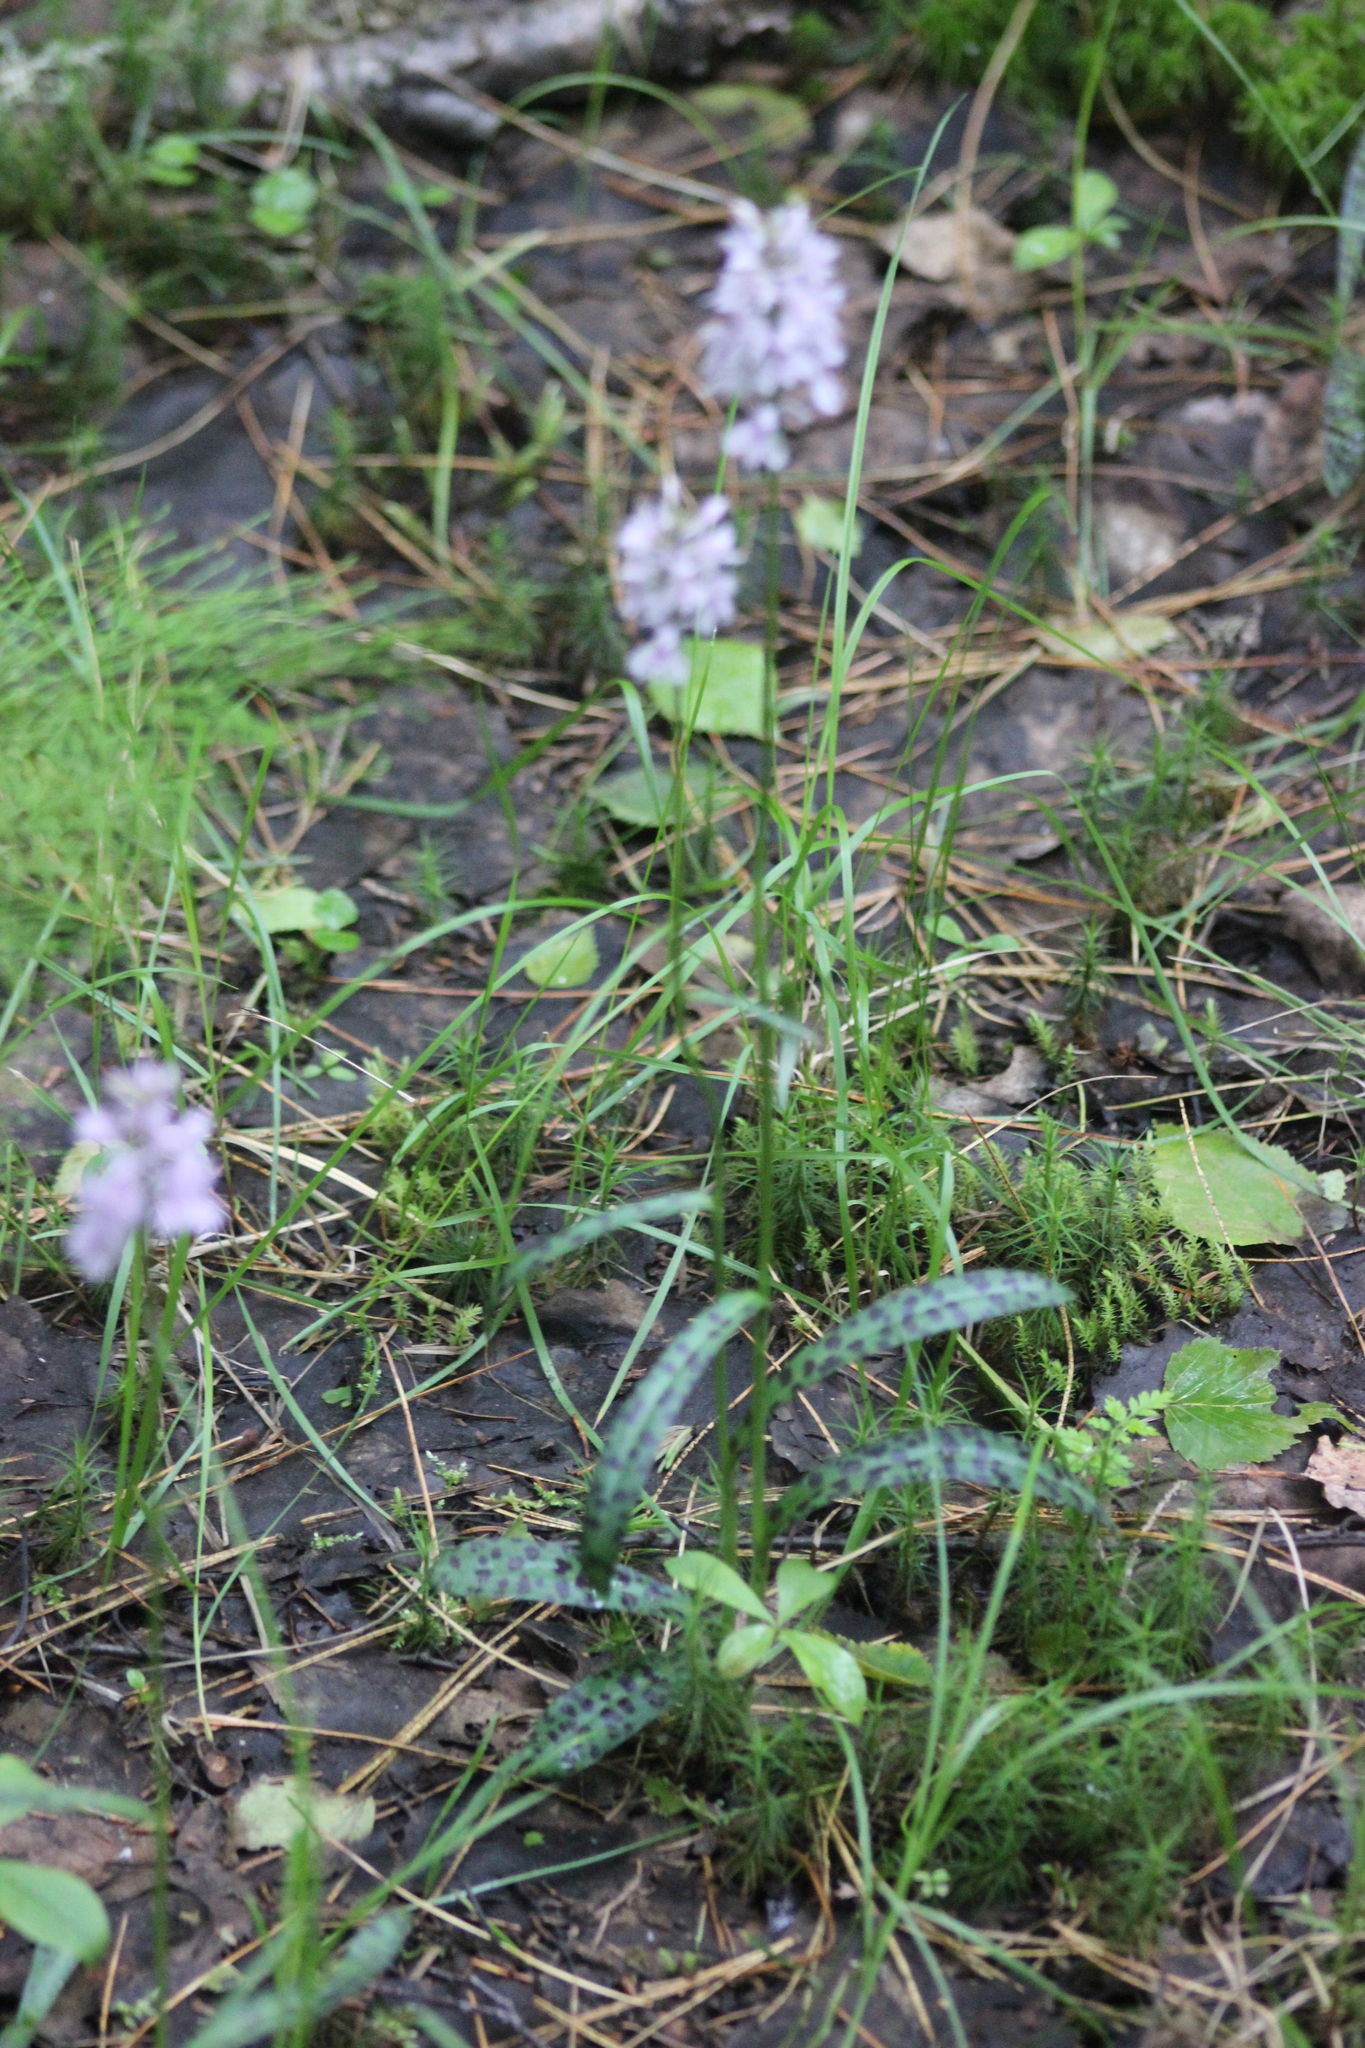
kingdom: Plantae
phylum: Tracheophyta
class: Liliopsida
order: Asparagales
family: Orchidaceae
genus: Dactylorhiza
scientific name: Dactylorhiza maculata
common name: Heath spotted-orchid
